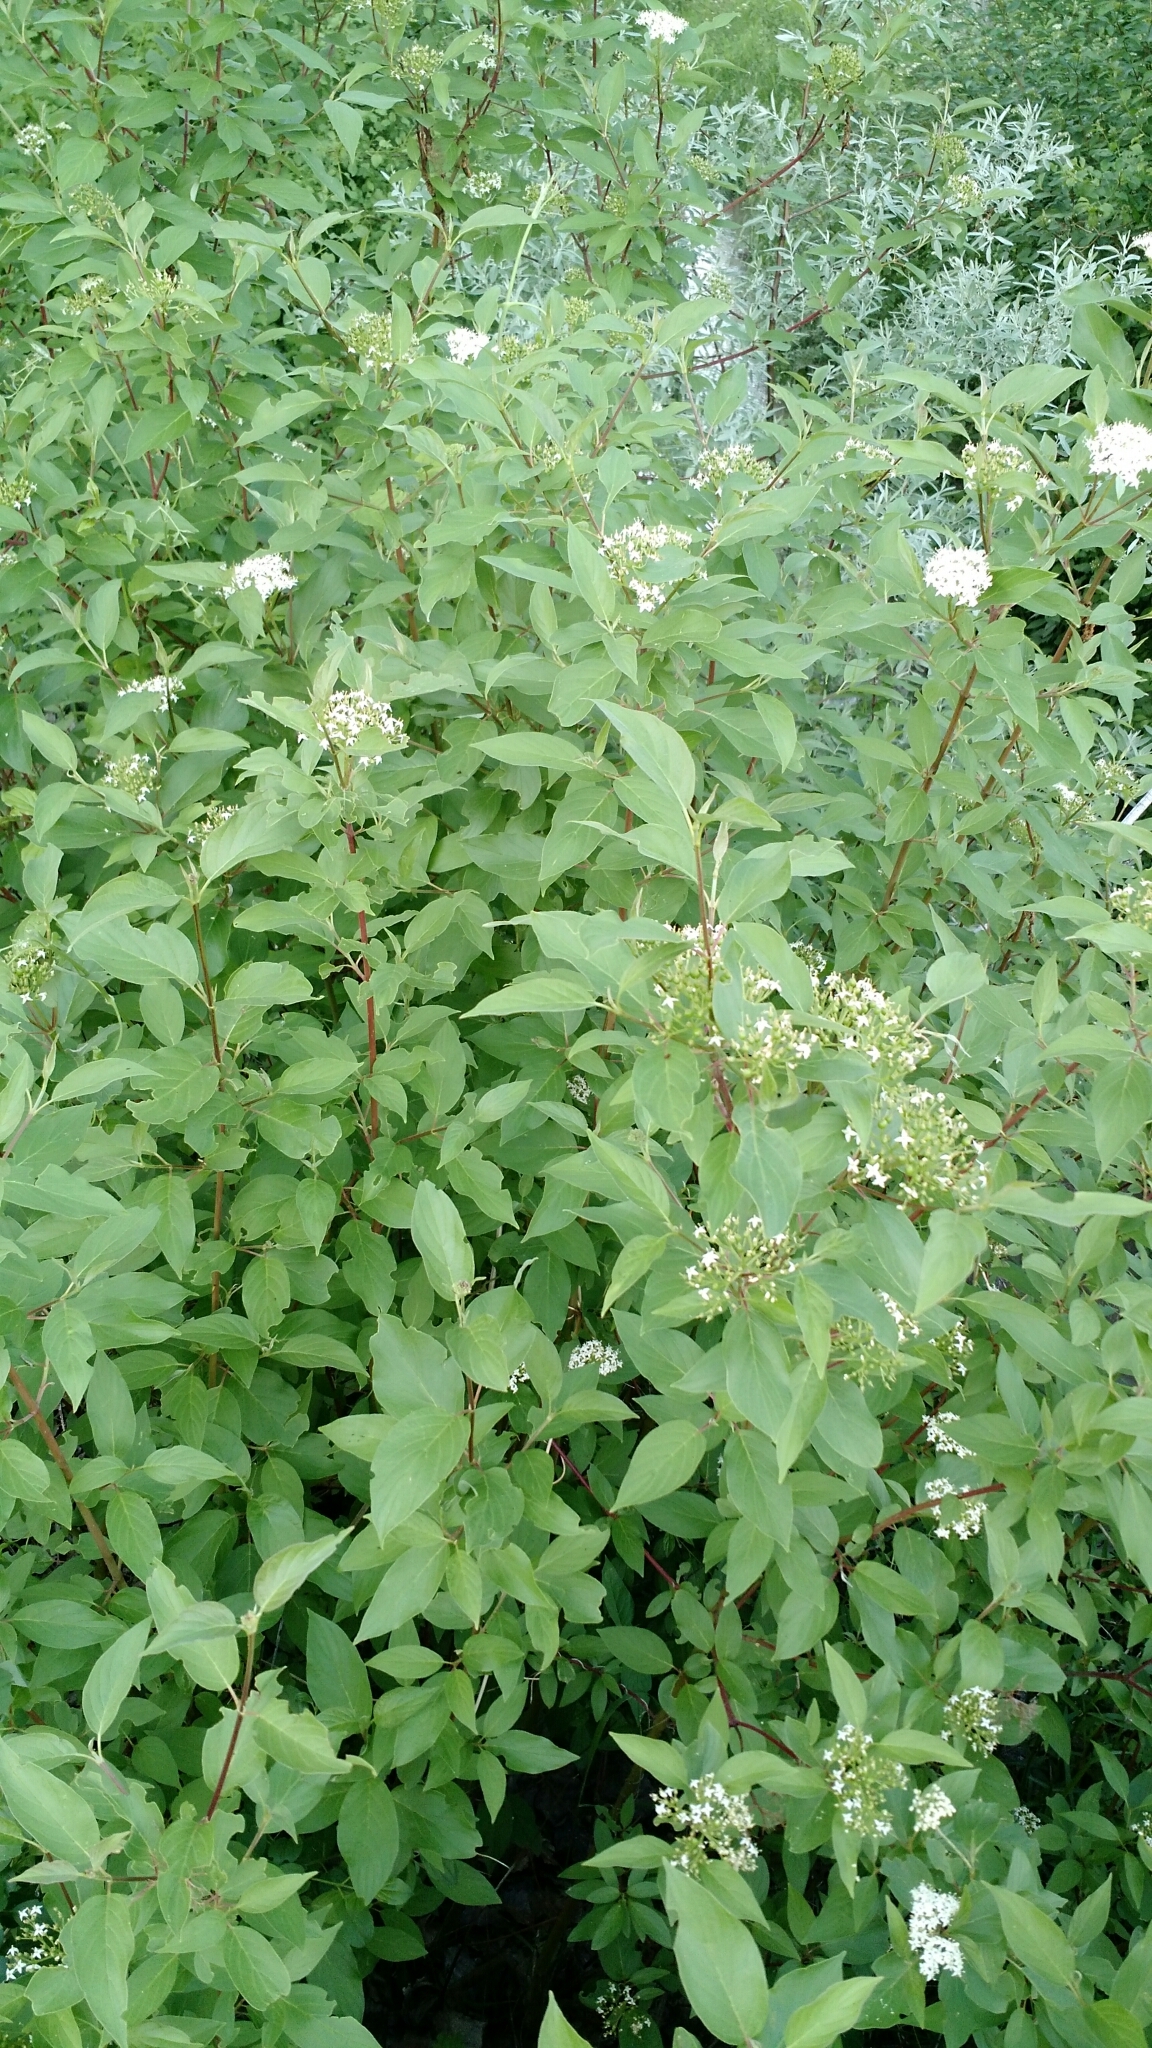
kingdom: Plantae
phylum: Tracheophyta
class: Magnoliopsida
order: Cornales
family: Cornaceae
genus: Cornus
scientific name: Cornus sericea
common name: Red-osier dogwood
